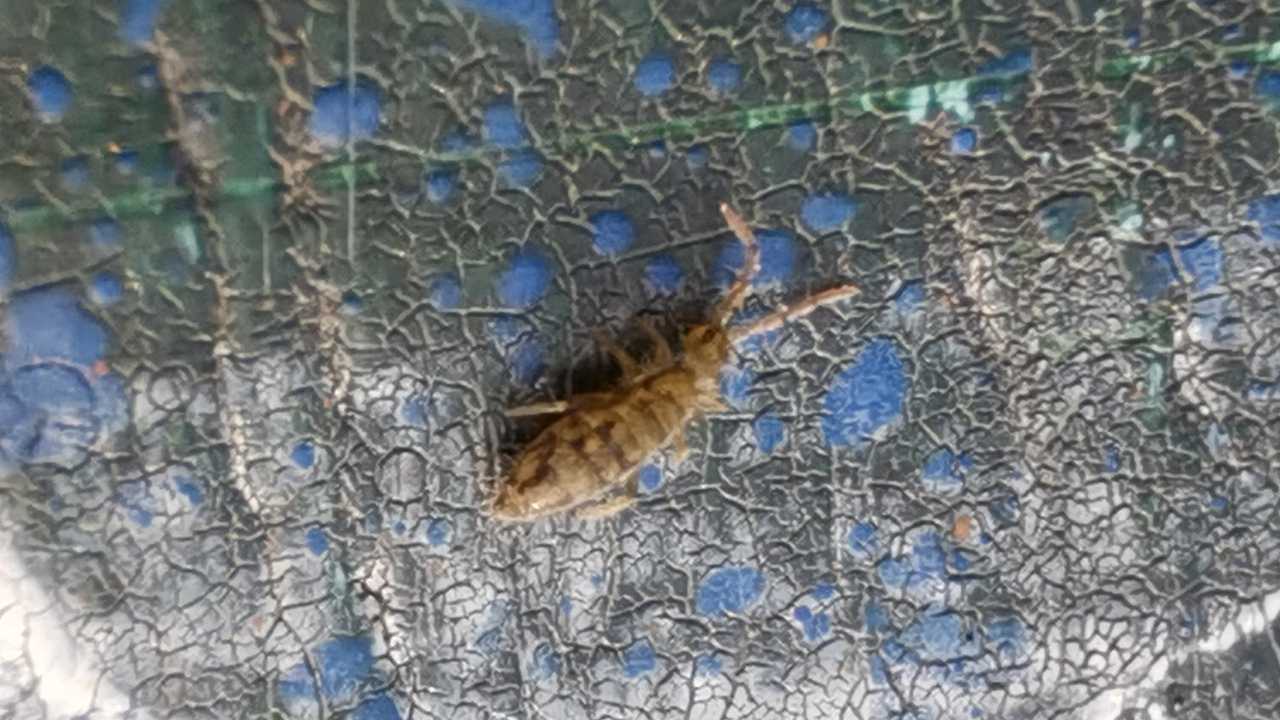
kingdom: Animalia
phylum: Arthropoda
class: Collembola
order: Entomobryomorpha
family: Entomobryidae
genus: Entomobrya
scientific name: Entomobrya nivalis
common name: Cosmopolitan springtail
